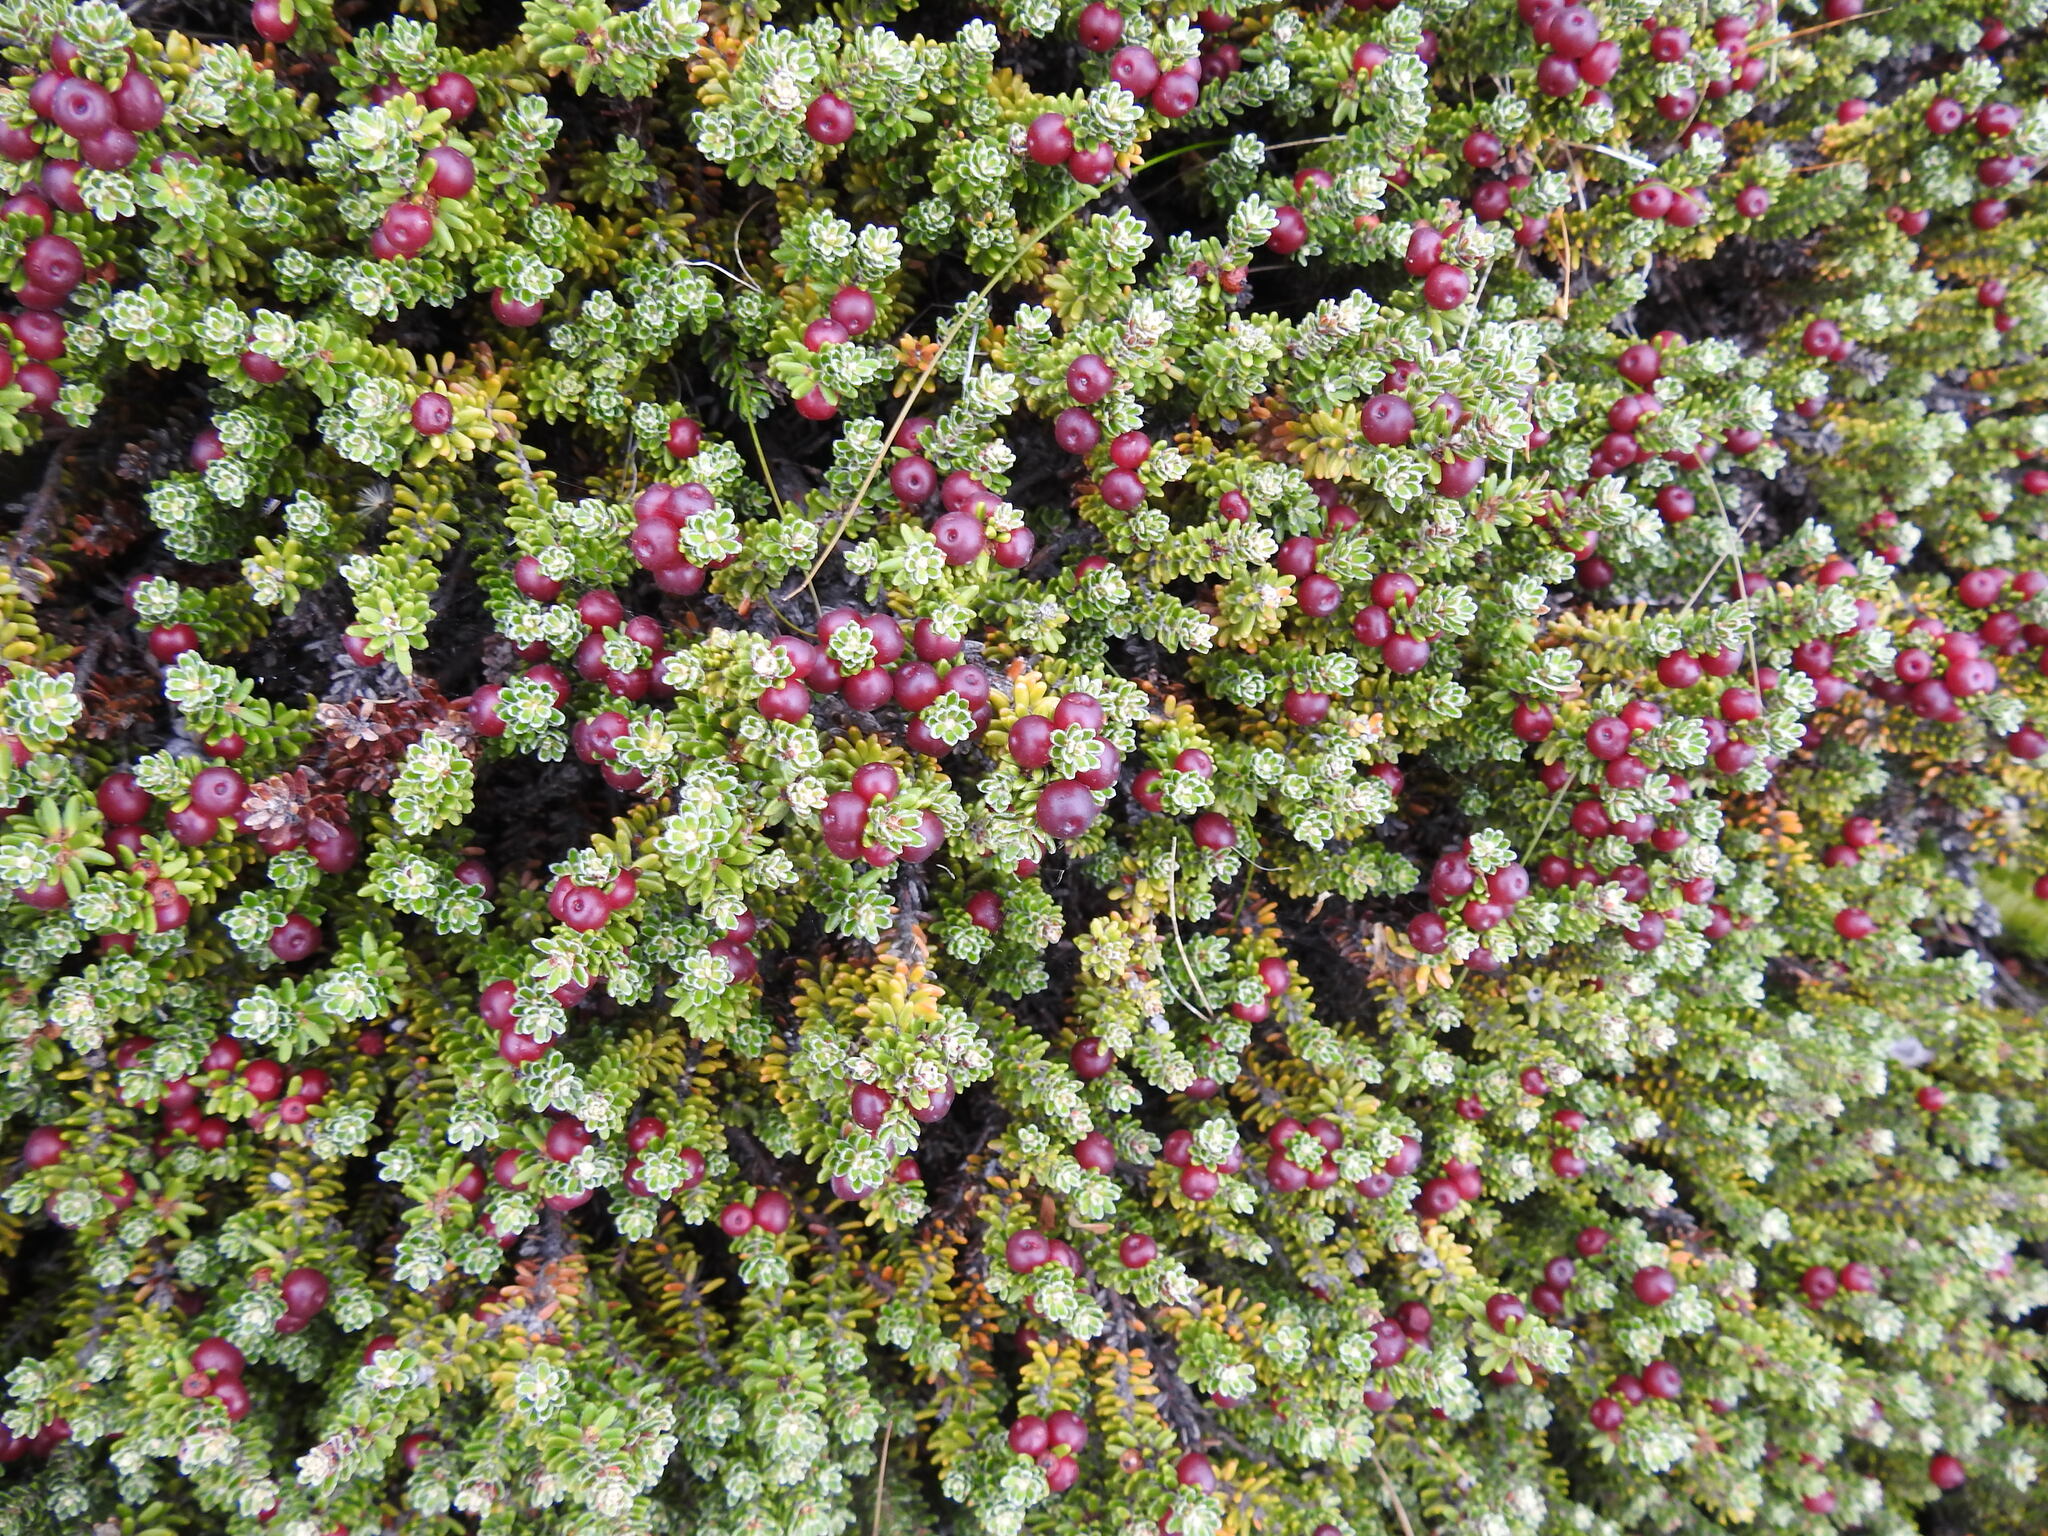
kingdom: Plantae
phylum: Tracheophyta
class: Magnoliopsida
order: Ericales
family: Ericaceae
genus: Empetrum
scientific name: Empetrum rubrum
